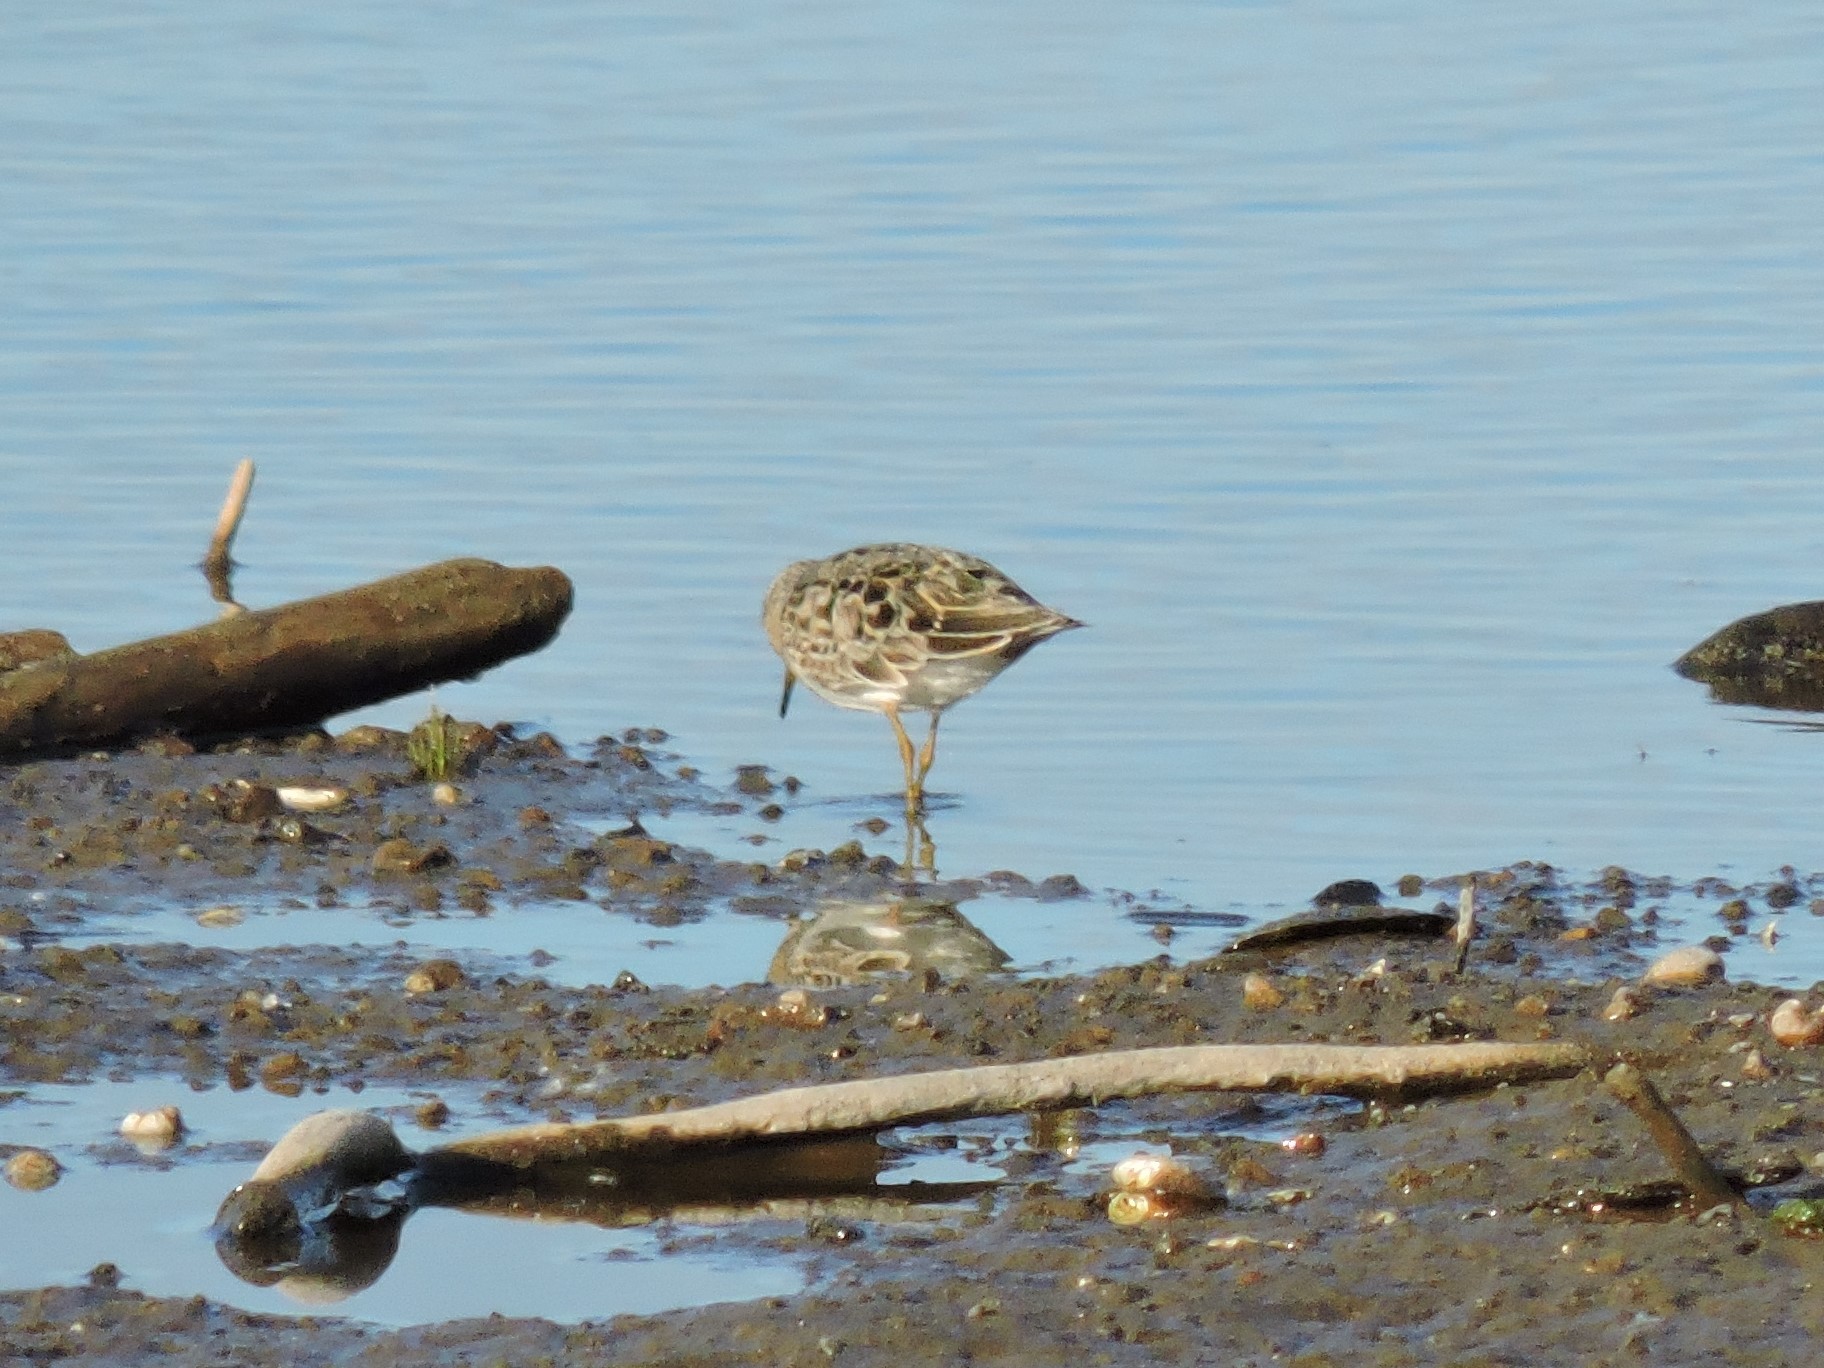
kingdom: Animalia
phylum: Chordata
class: Aves
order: Charadriiformes
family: Scolopacidae
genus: Calidris
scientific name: Calidris temminckii
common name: Temminck's stint
